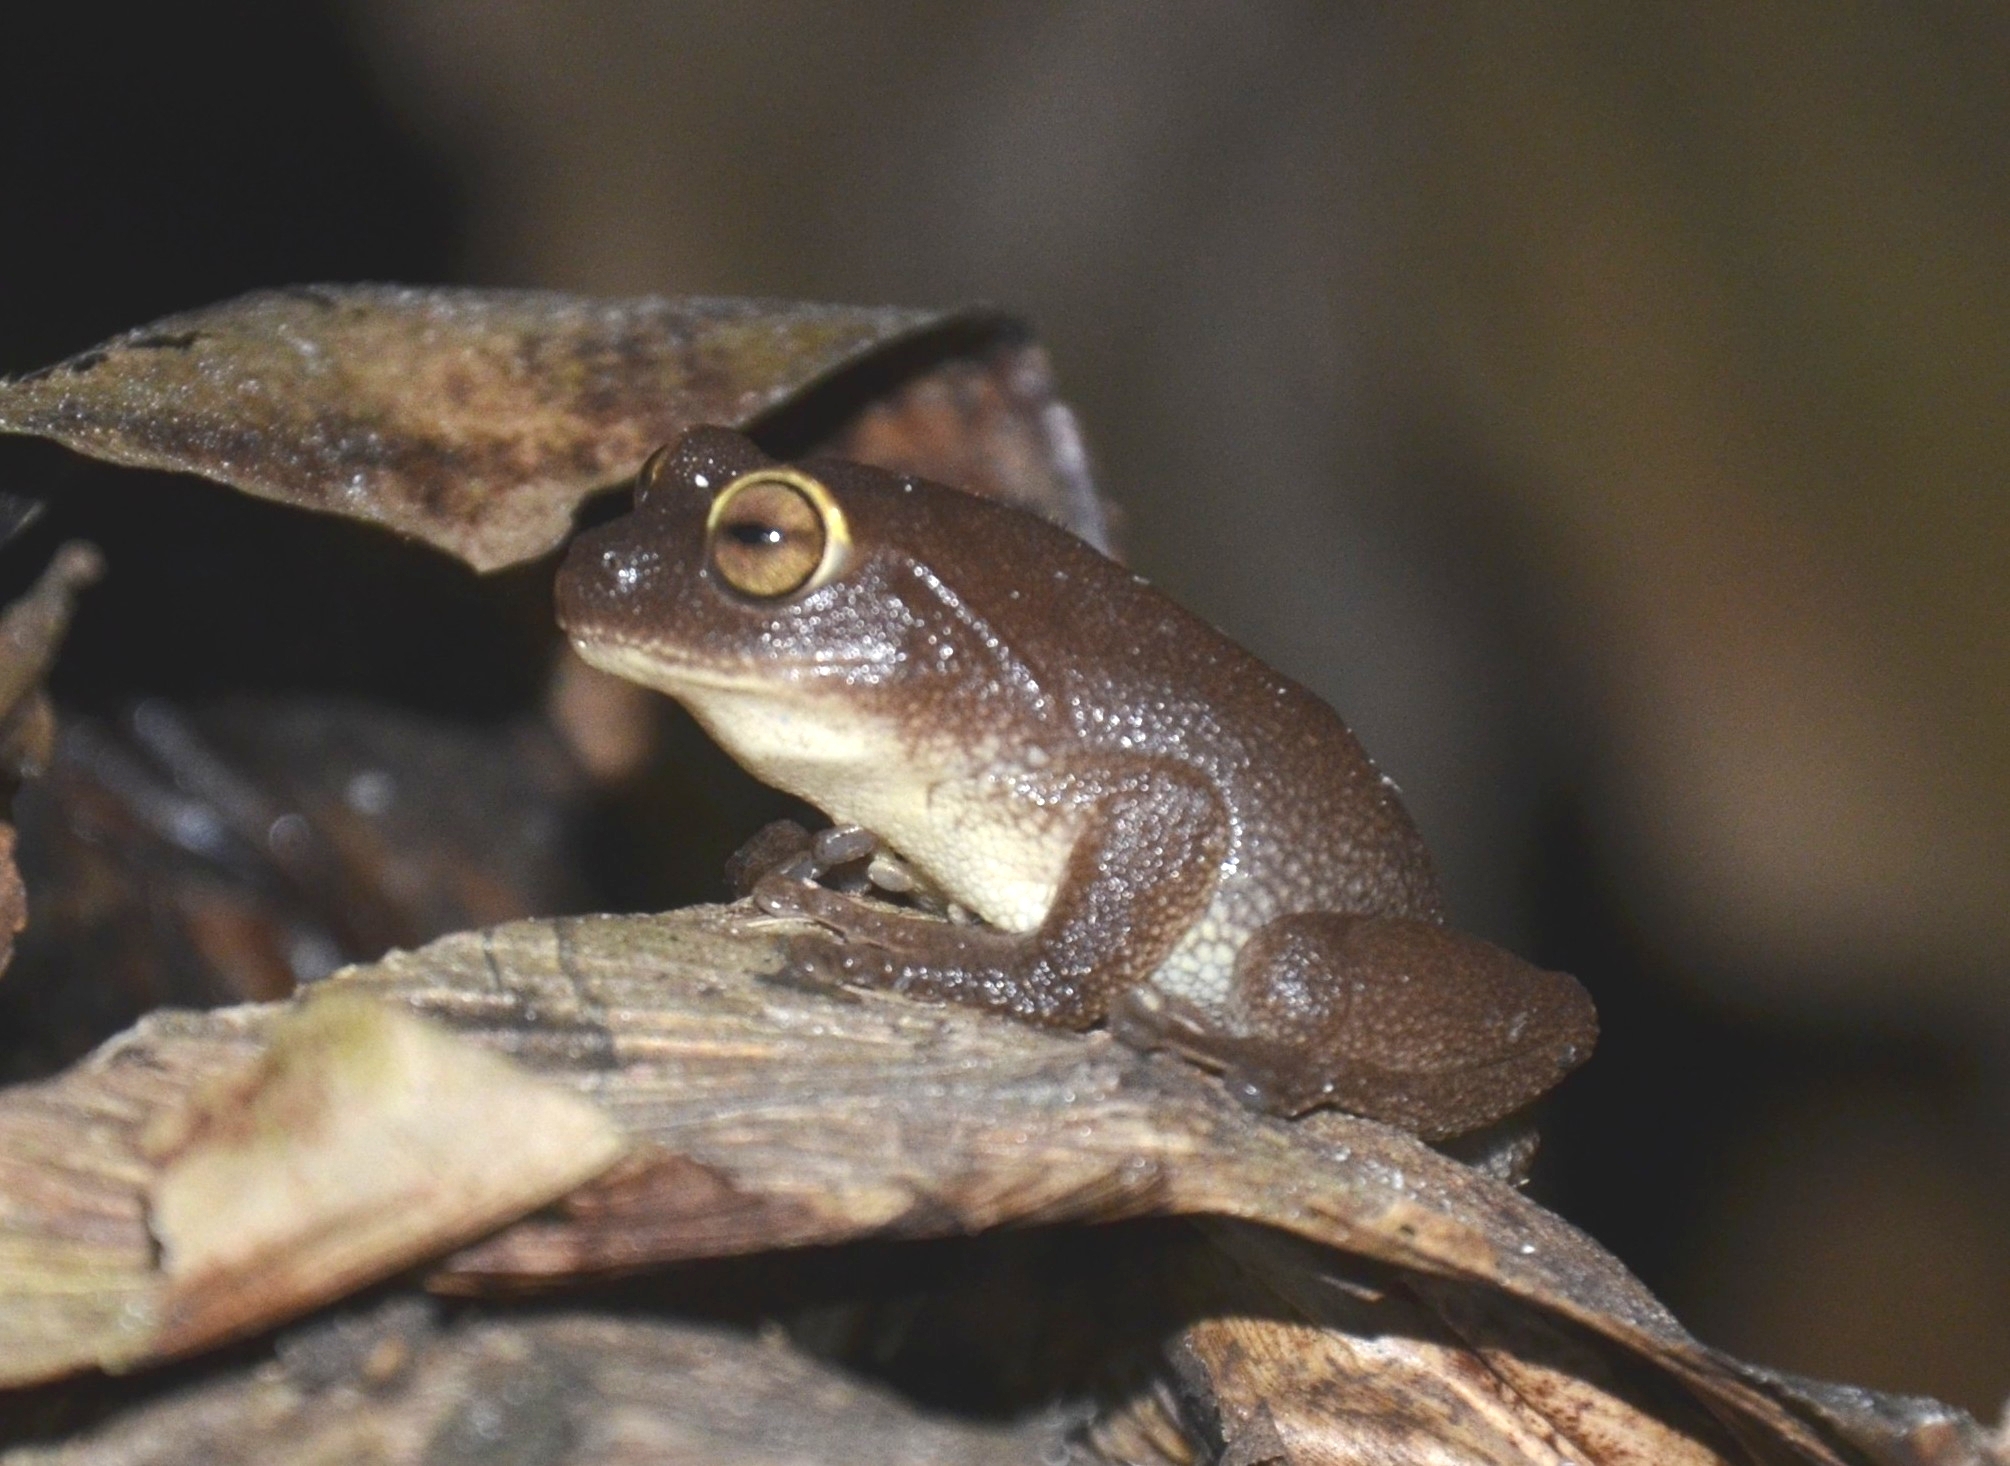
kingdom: Animalia
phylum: Chordata
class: Amphibia
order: Anura
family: Rhacophoridae
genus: Raorchestes
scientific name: Raorchestes ponmudi
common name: Large ponmudi bush frog
